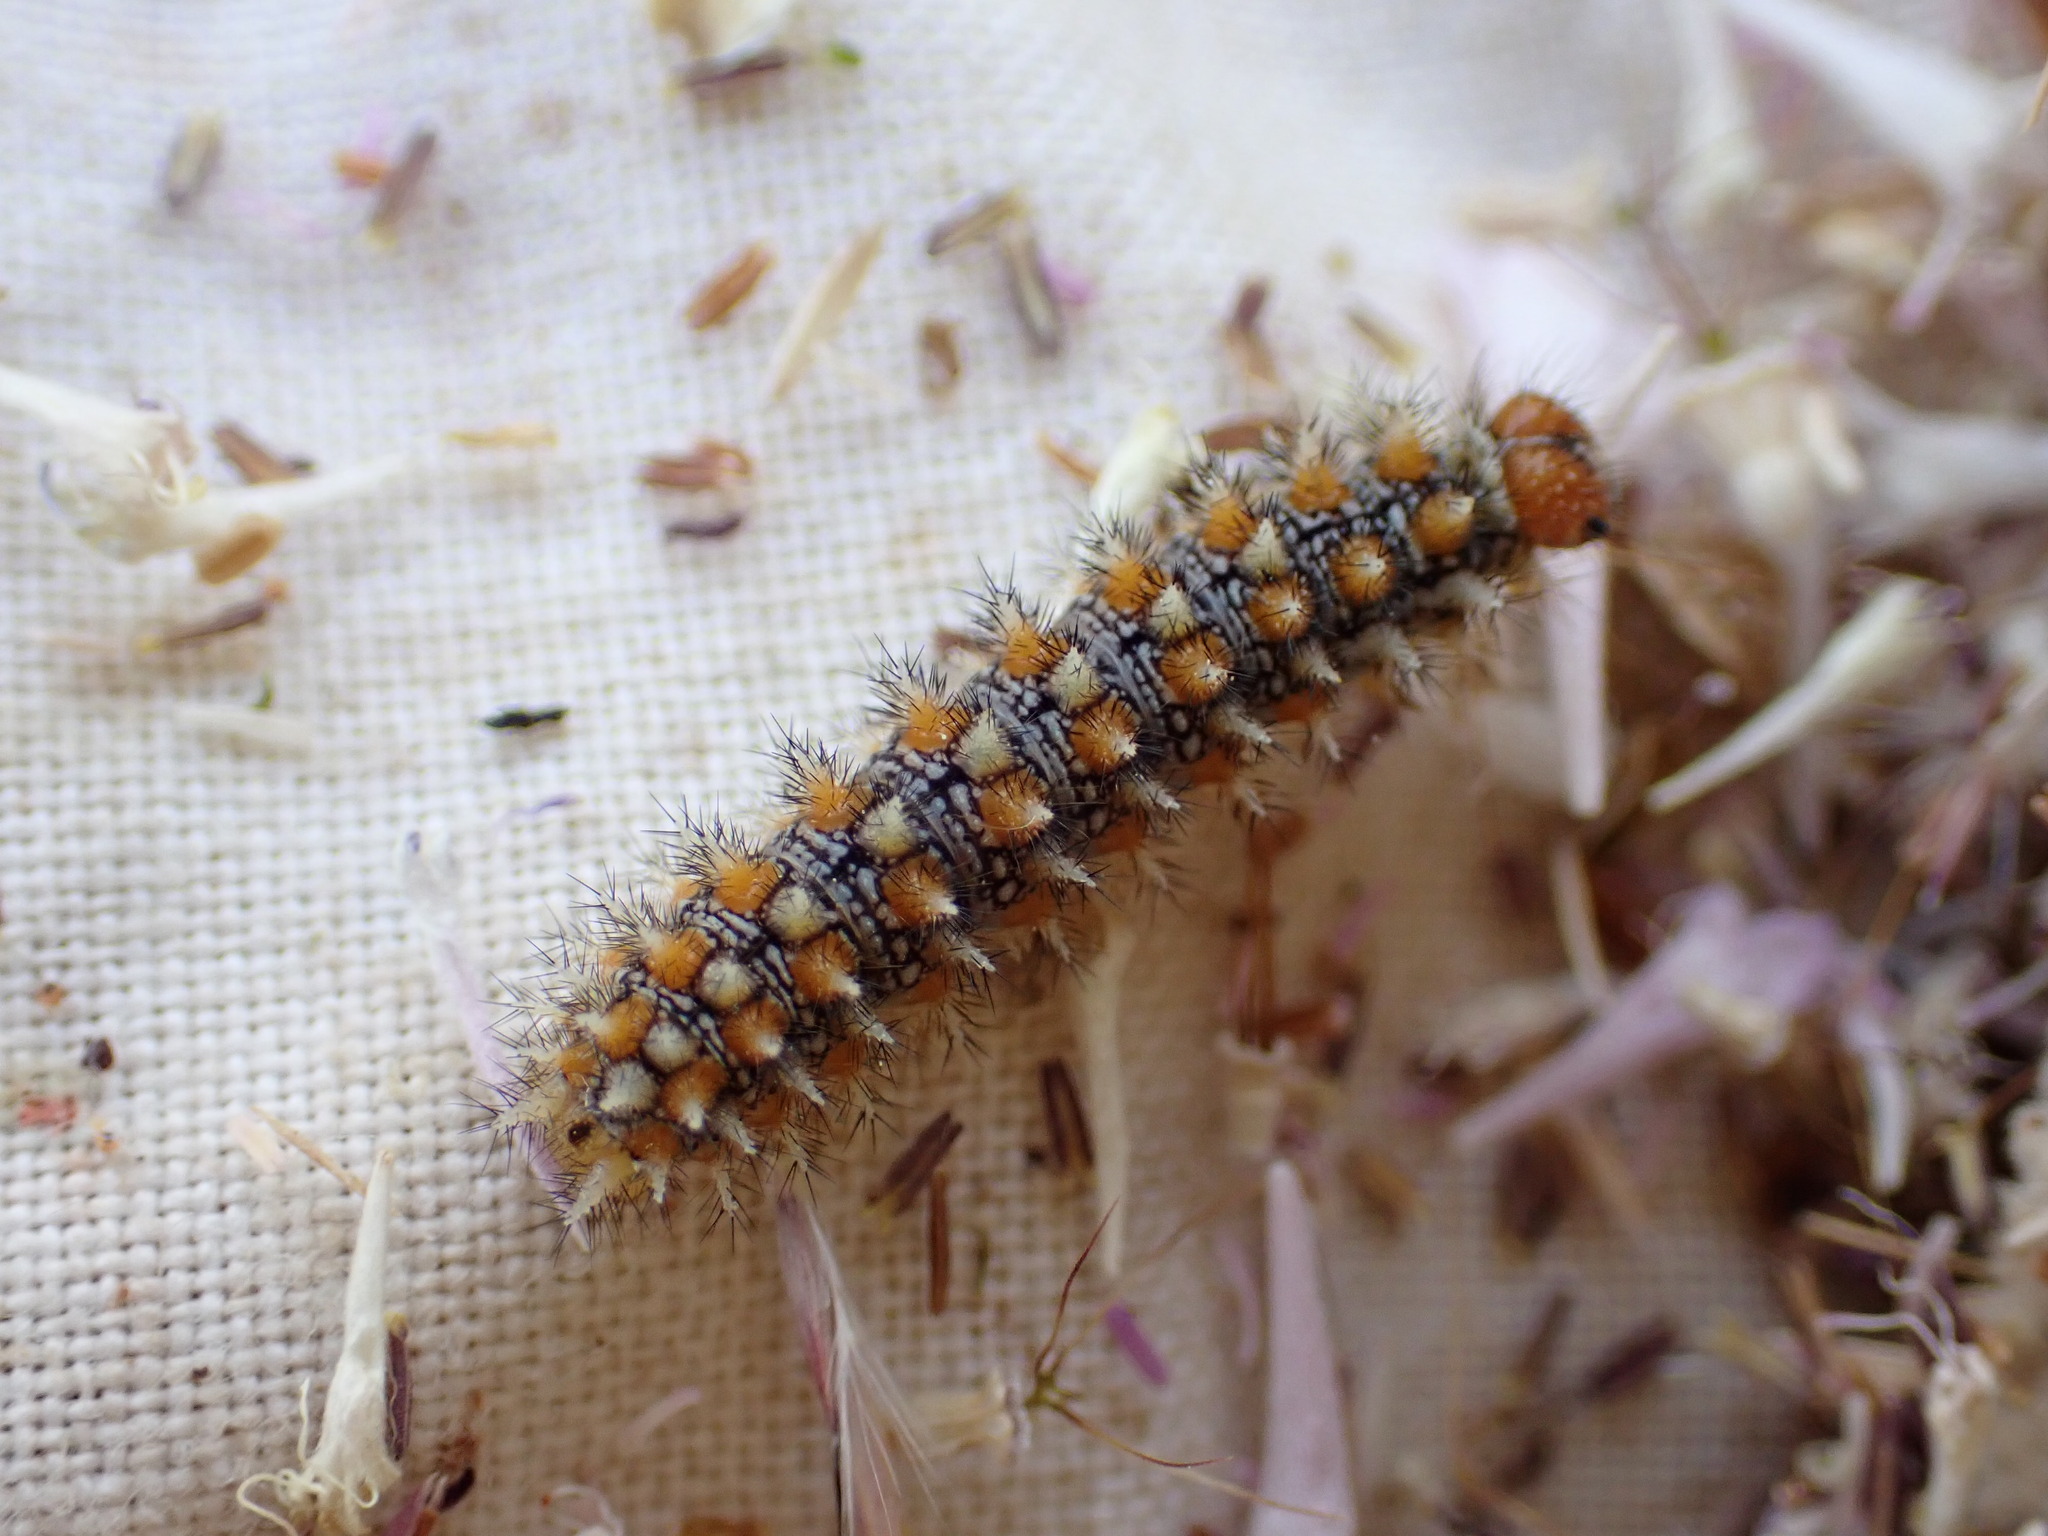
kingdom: Animalia
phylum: Arthropoda
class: Insecta
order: Lepidoptera
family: Nymphalidae
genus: Melitaea
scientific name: Melitaea didyma
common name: Spotted fritillary
